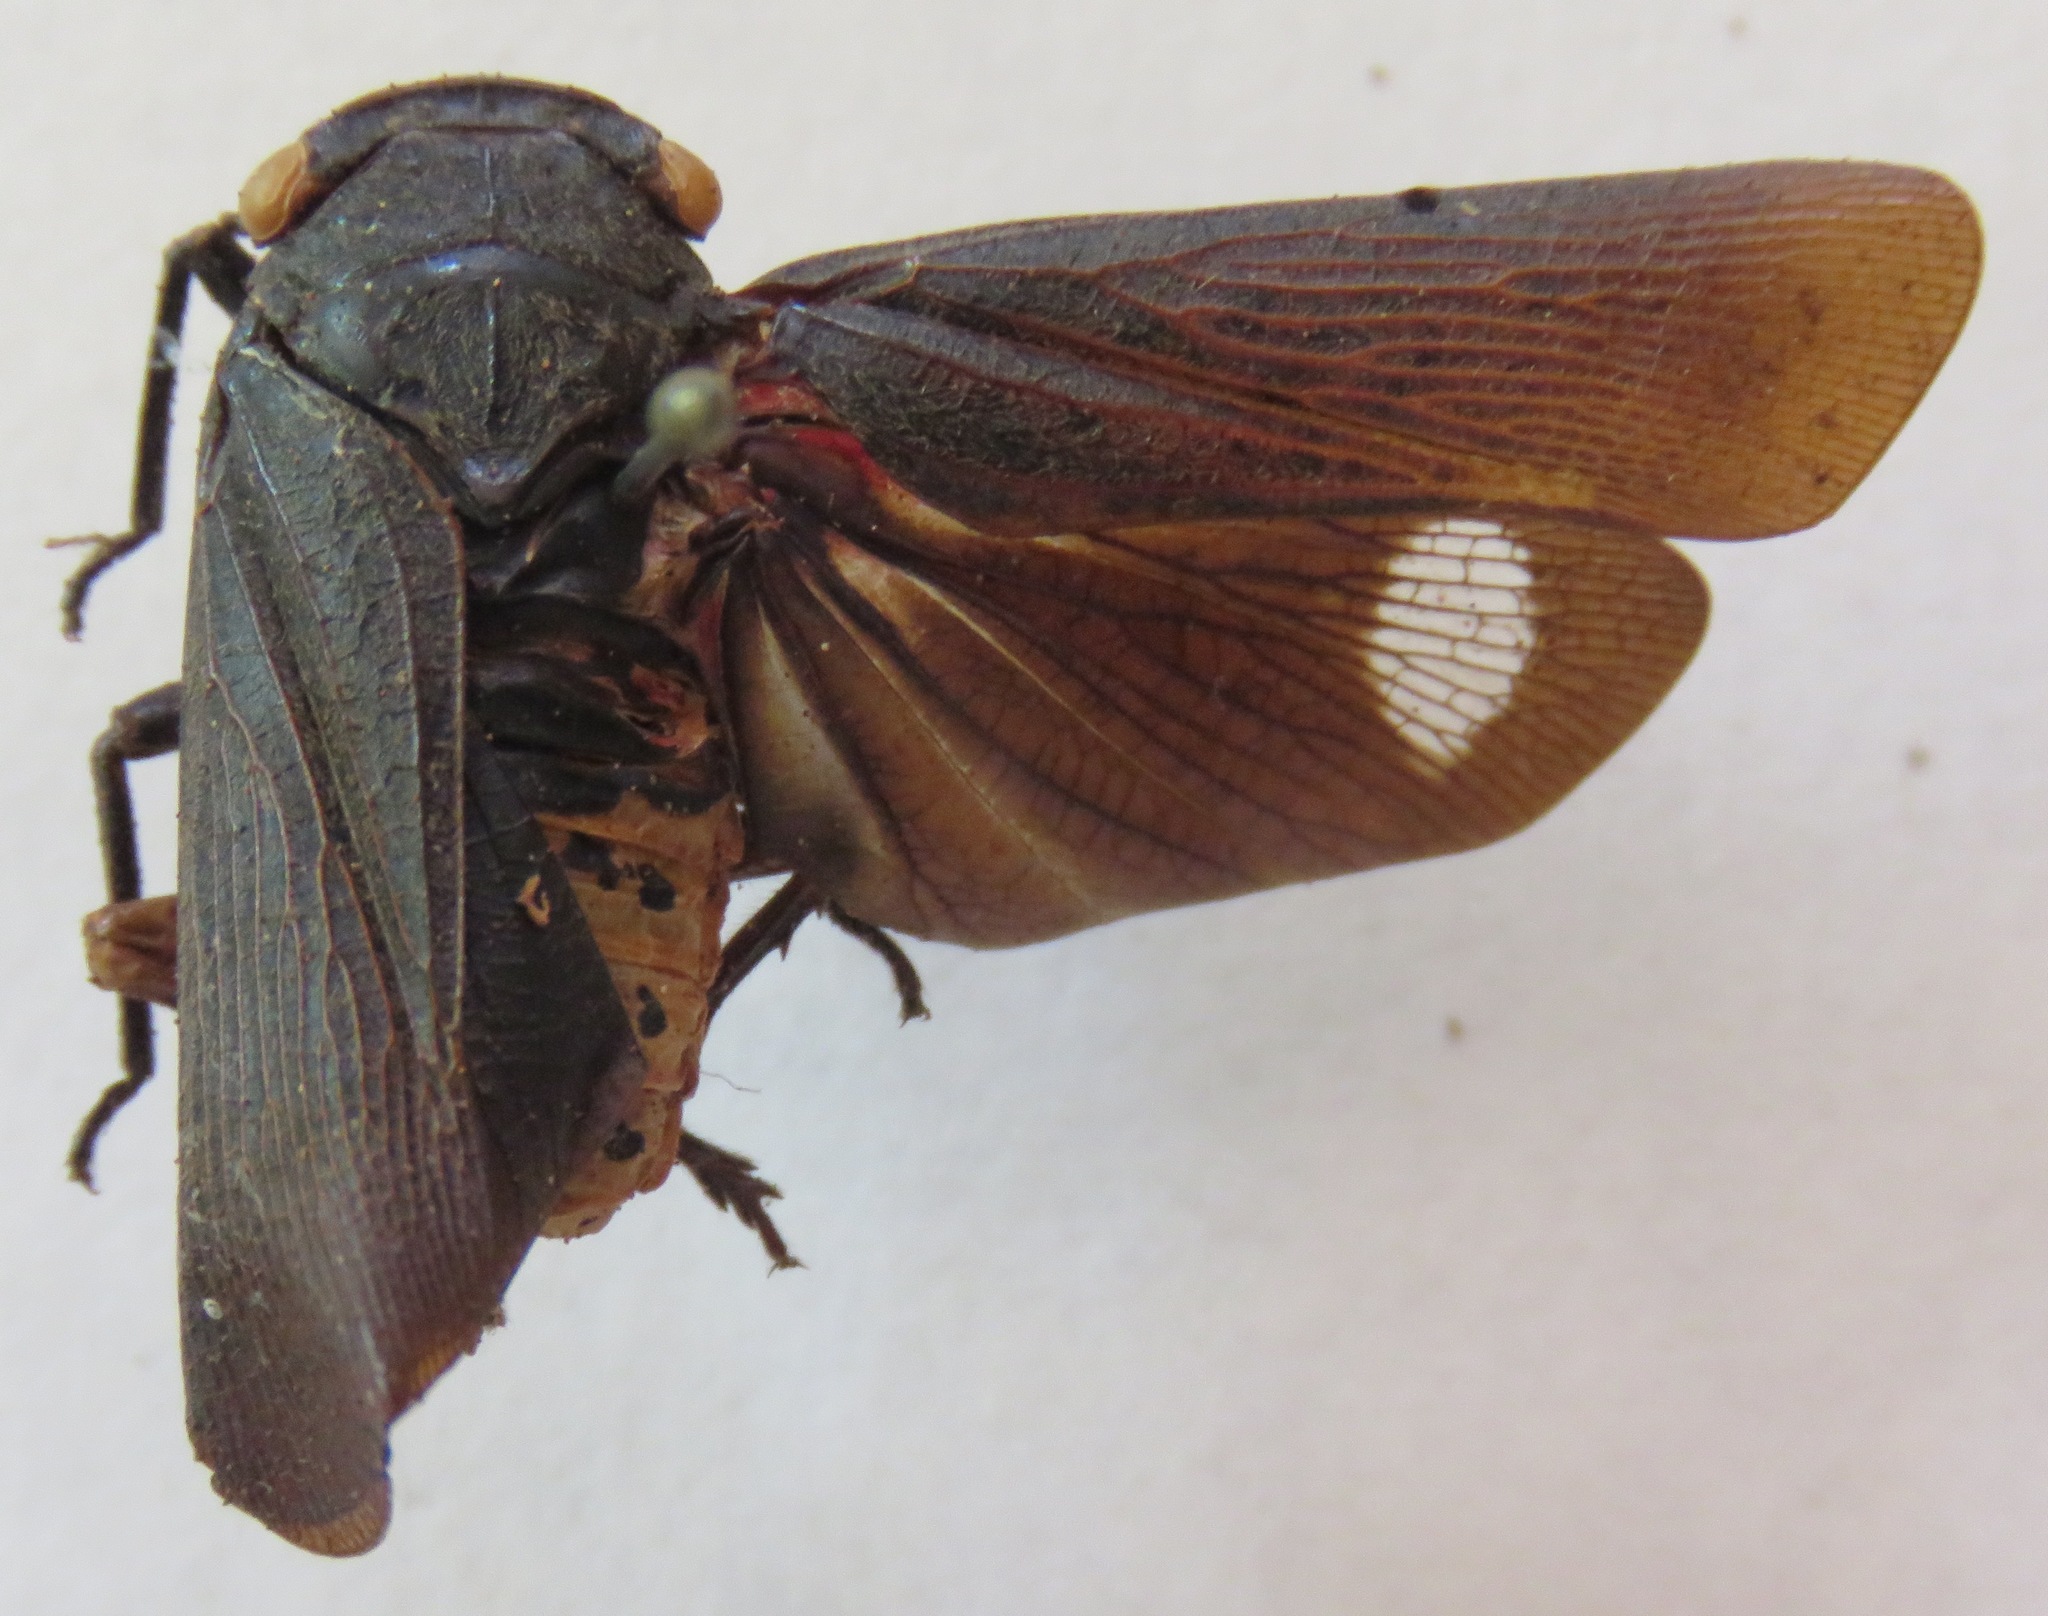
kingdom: Animalia
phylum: Arthropoda
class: Insecta
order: Hemiptera
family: Fulgoridae
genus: Acraephia
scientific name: Acraephia perspicillata
